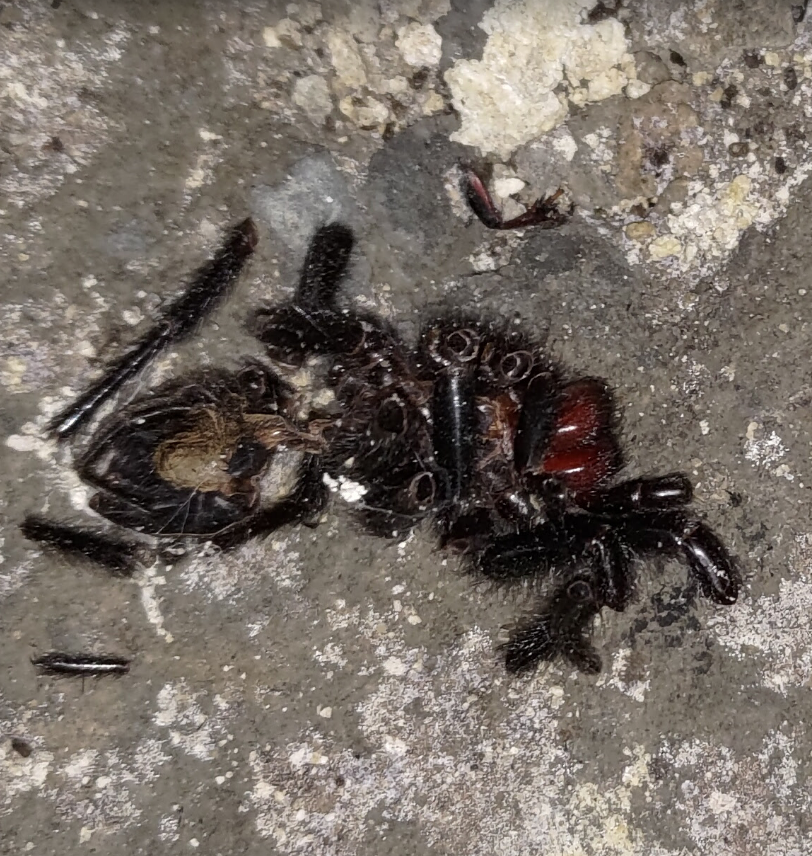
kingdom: Animalia
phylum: Arthropoda
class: Arachnida
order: Araneae
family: Macrothelidae
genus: Macrothele
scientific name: Macrothele hungae
